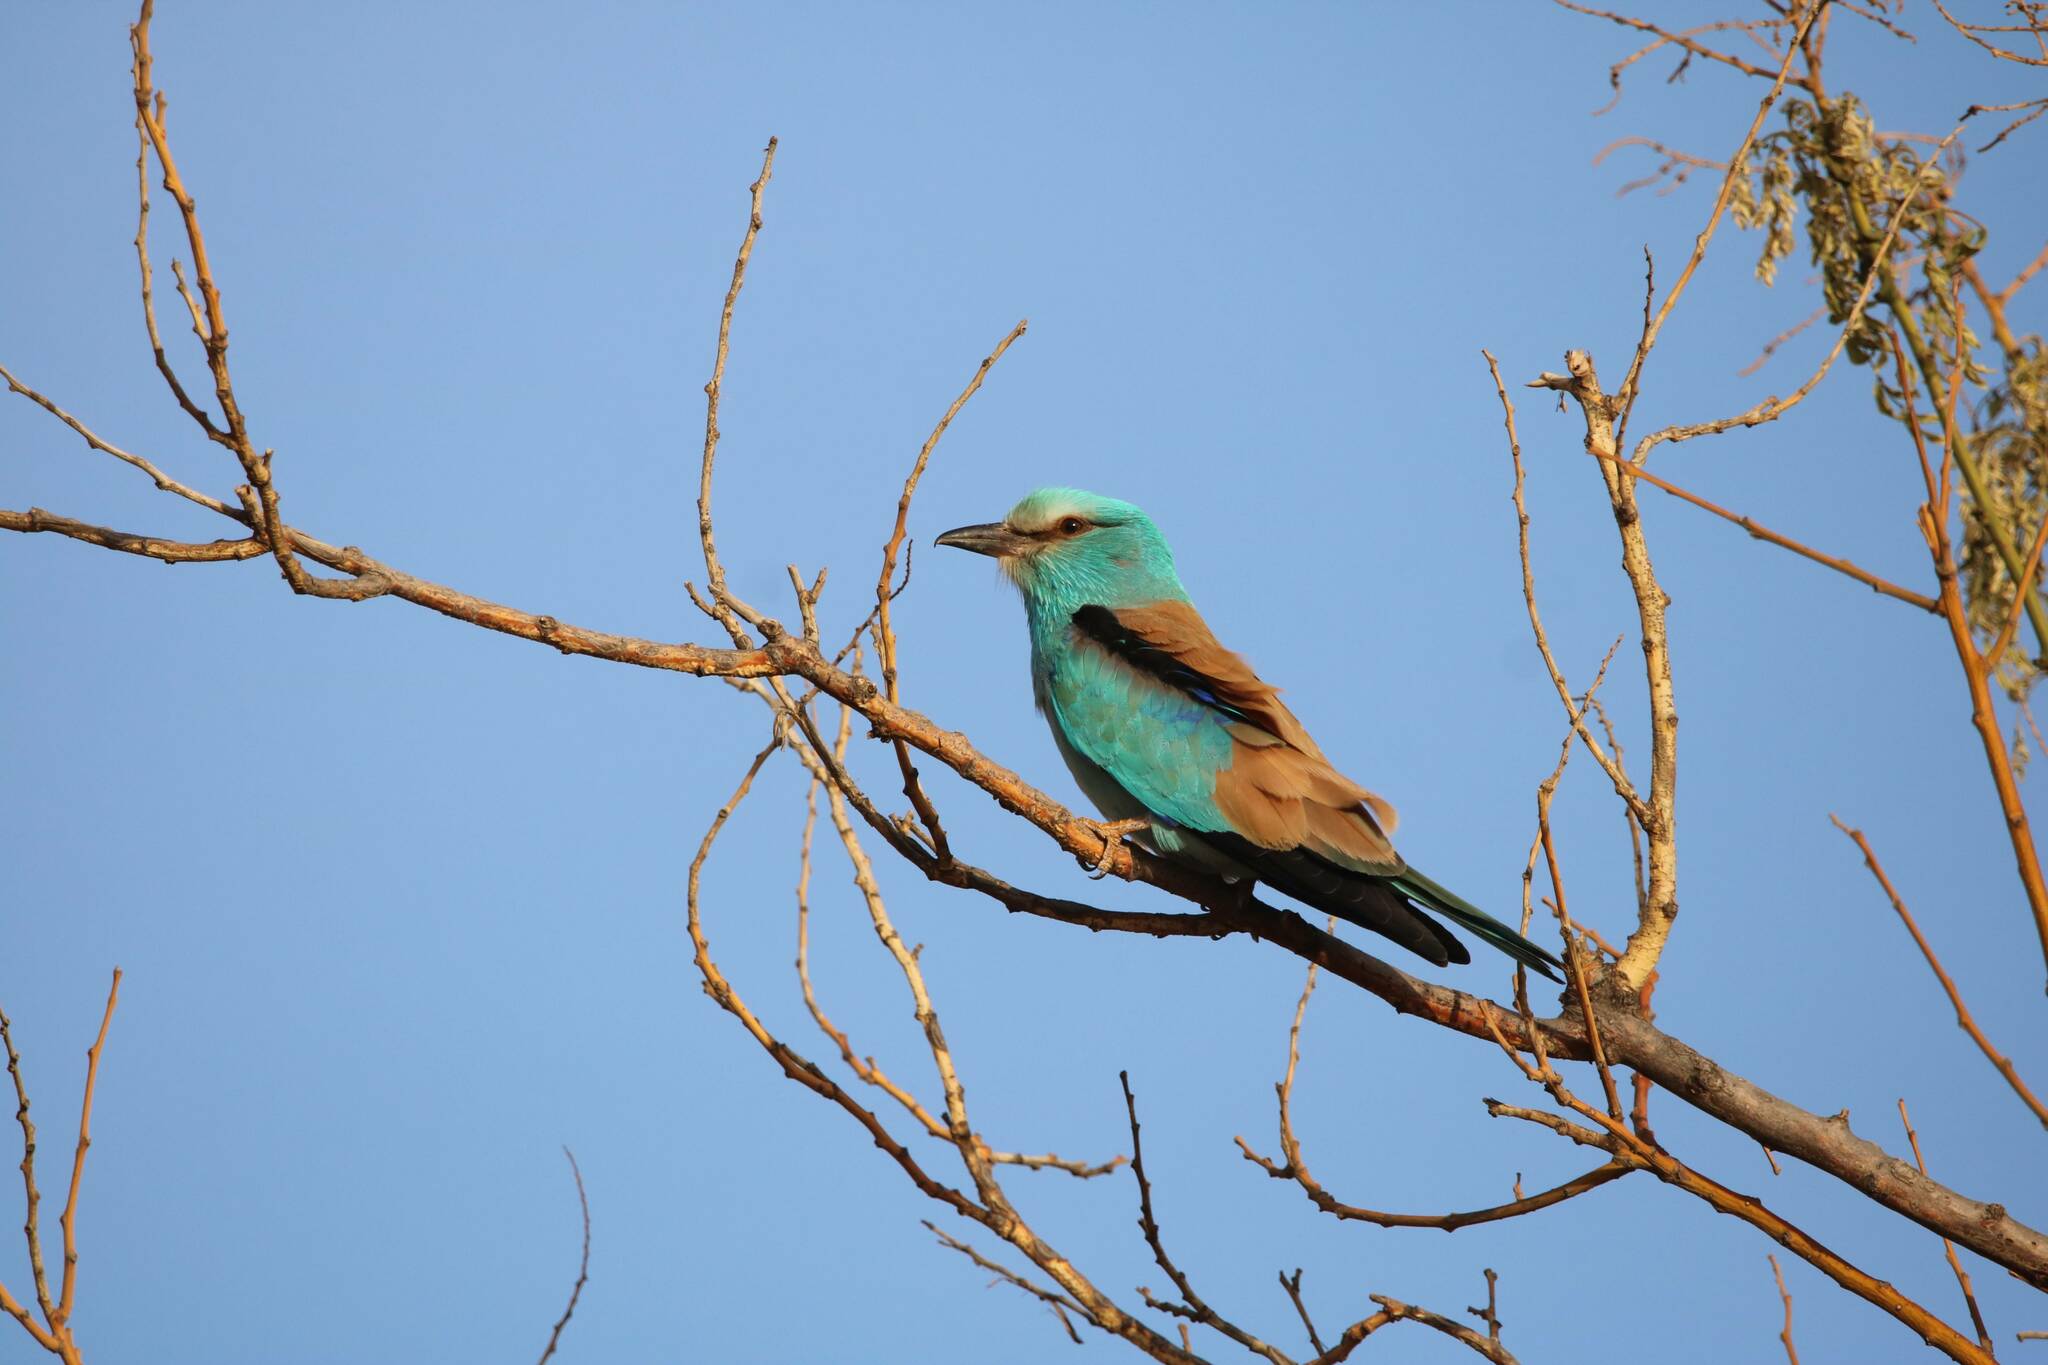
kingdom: Animalia
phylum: Chordata
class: Aves
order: Coraciiformes
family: Coraciidae
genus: Coracias
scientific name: Coracias garrulus
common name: European roller
